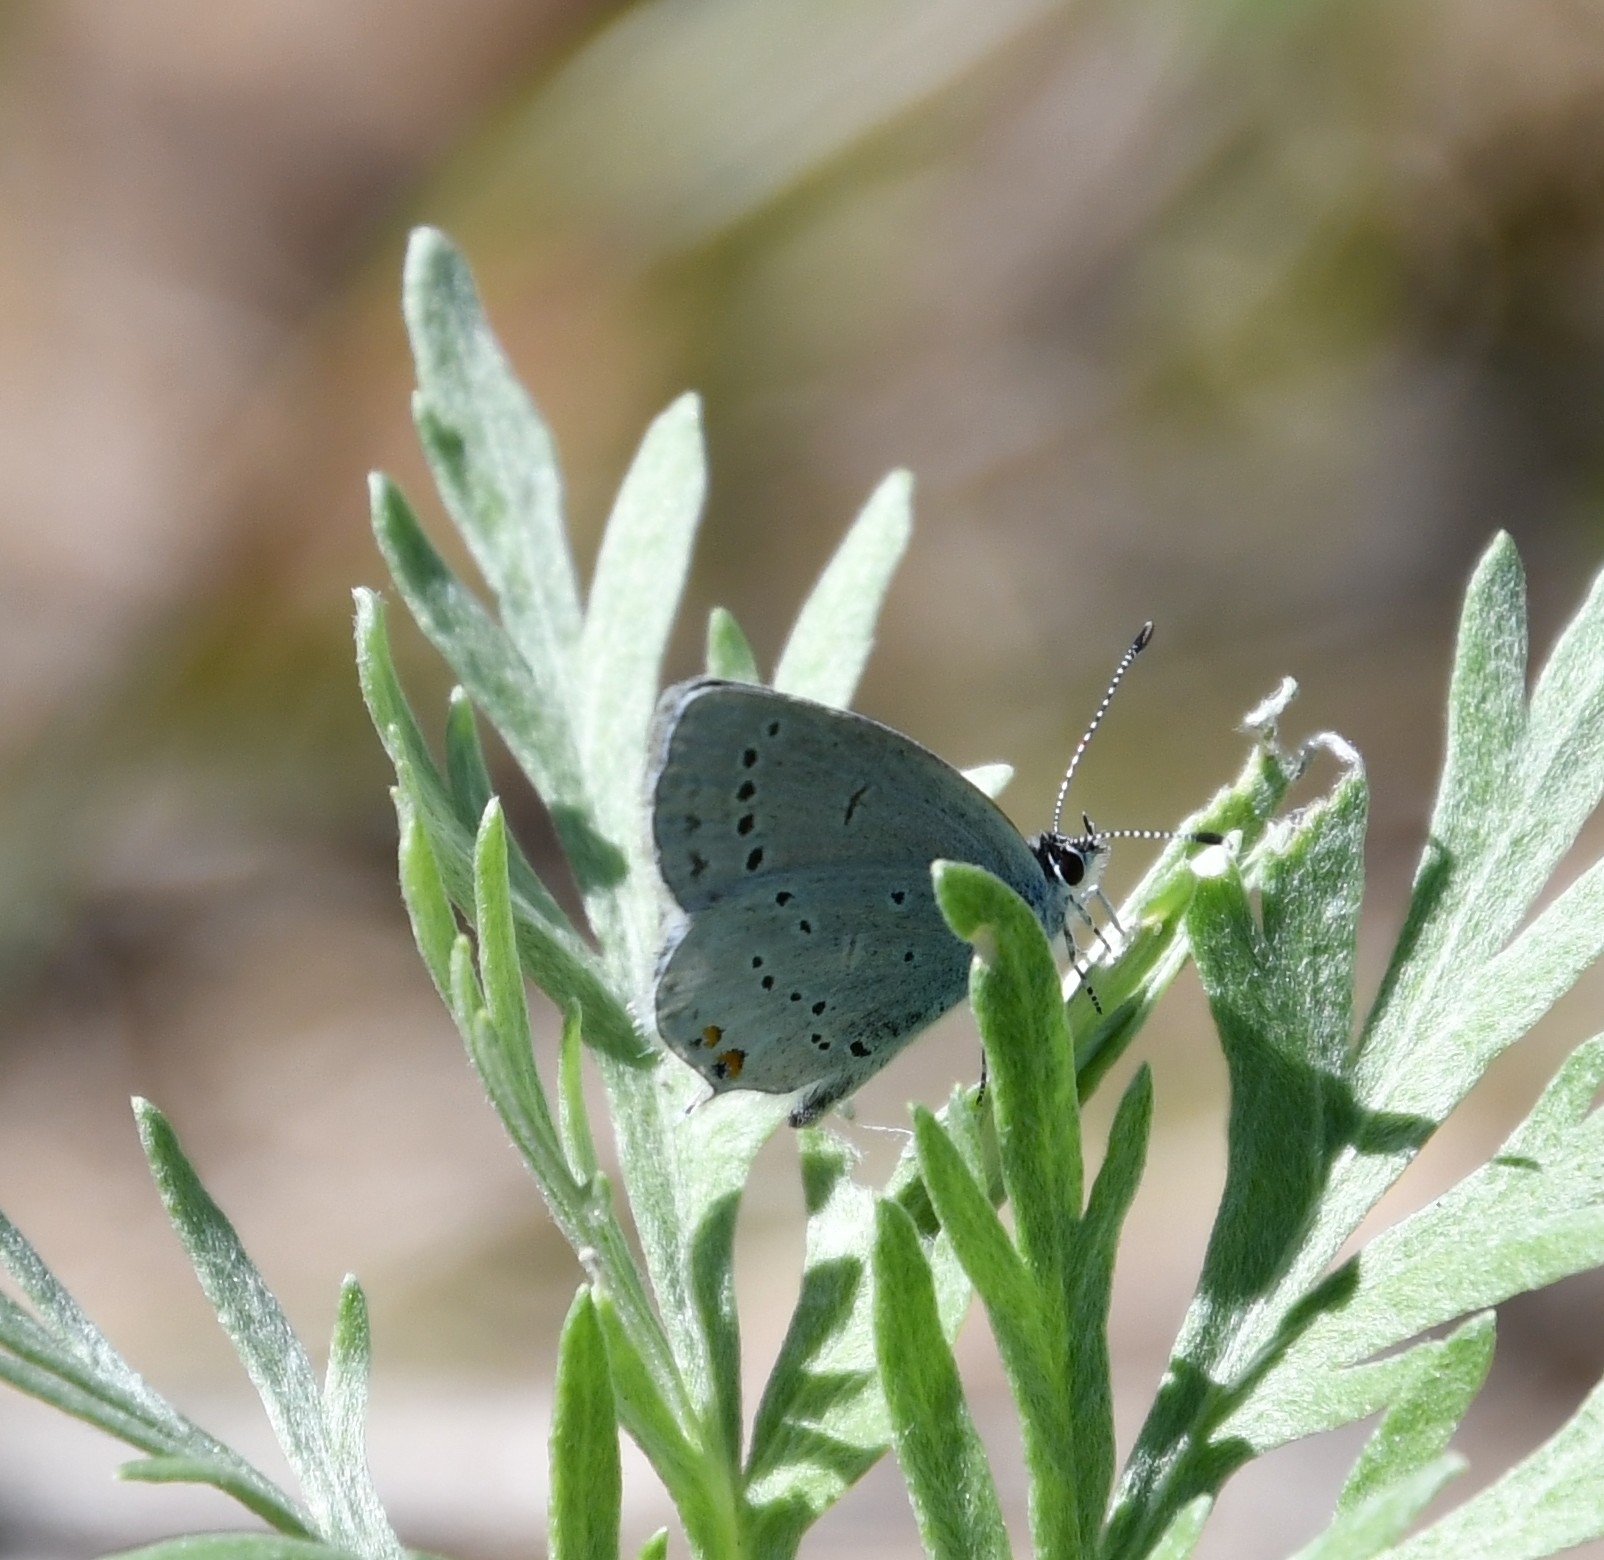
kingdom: Animalia
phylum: Arthropoda
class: Insecta
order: Lepidoptera
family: Lycaenidae
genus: Elkalyce
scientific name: Elkalyce argiades
